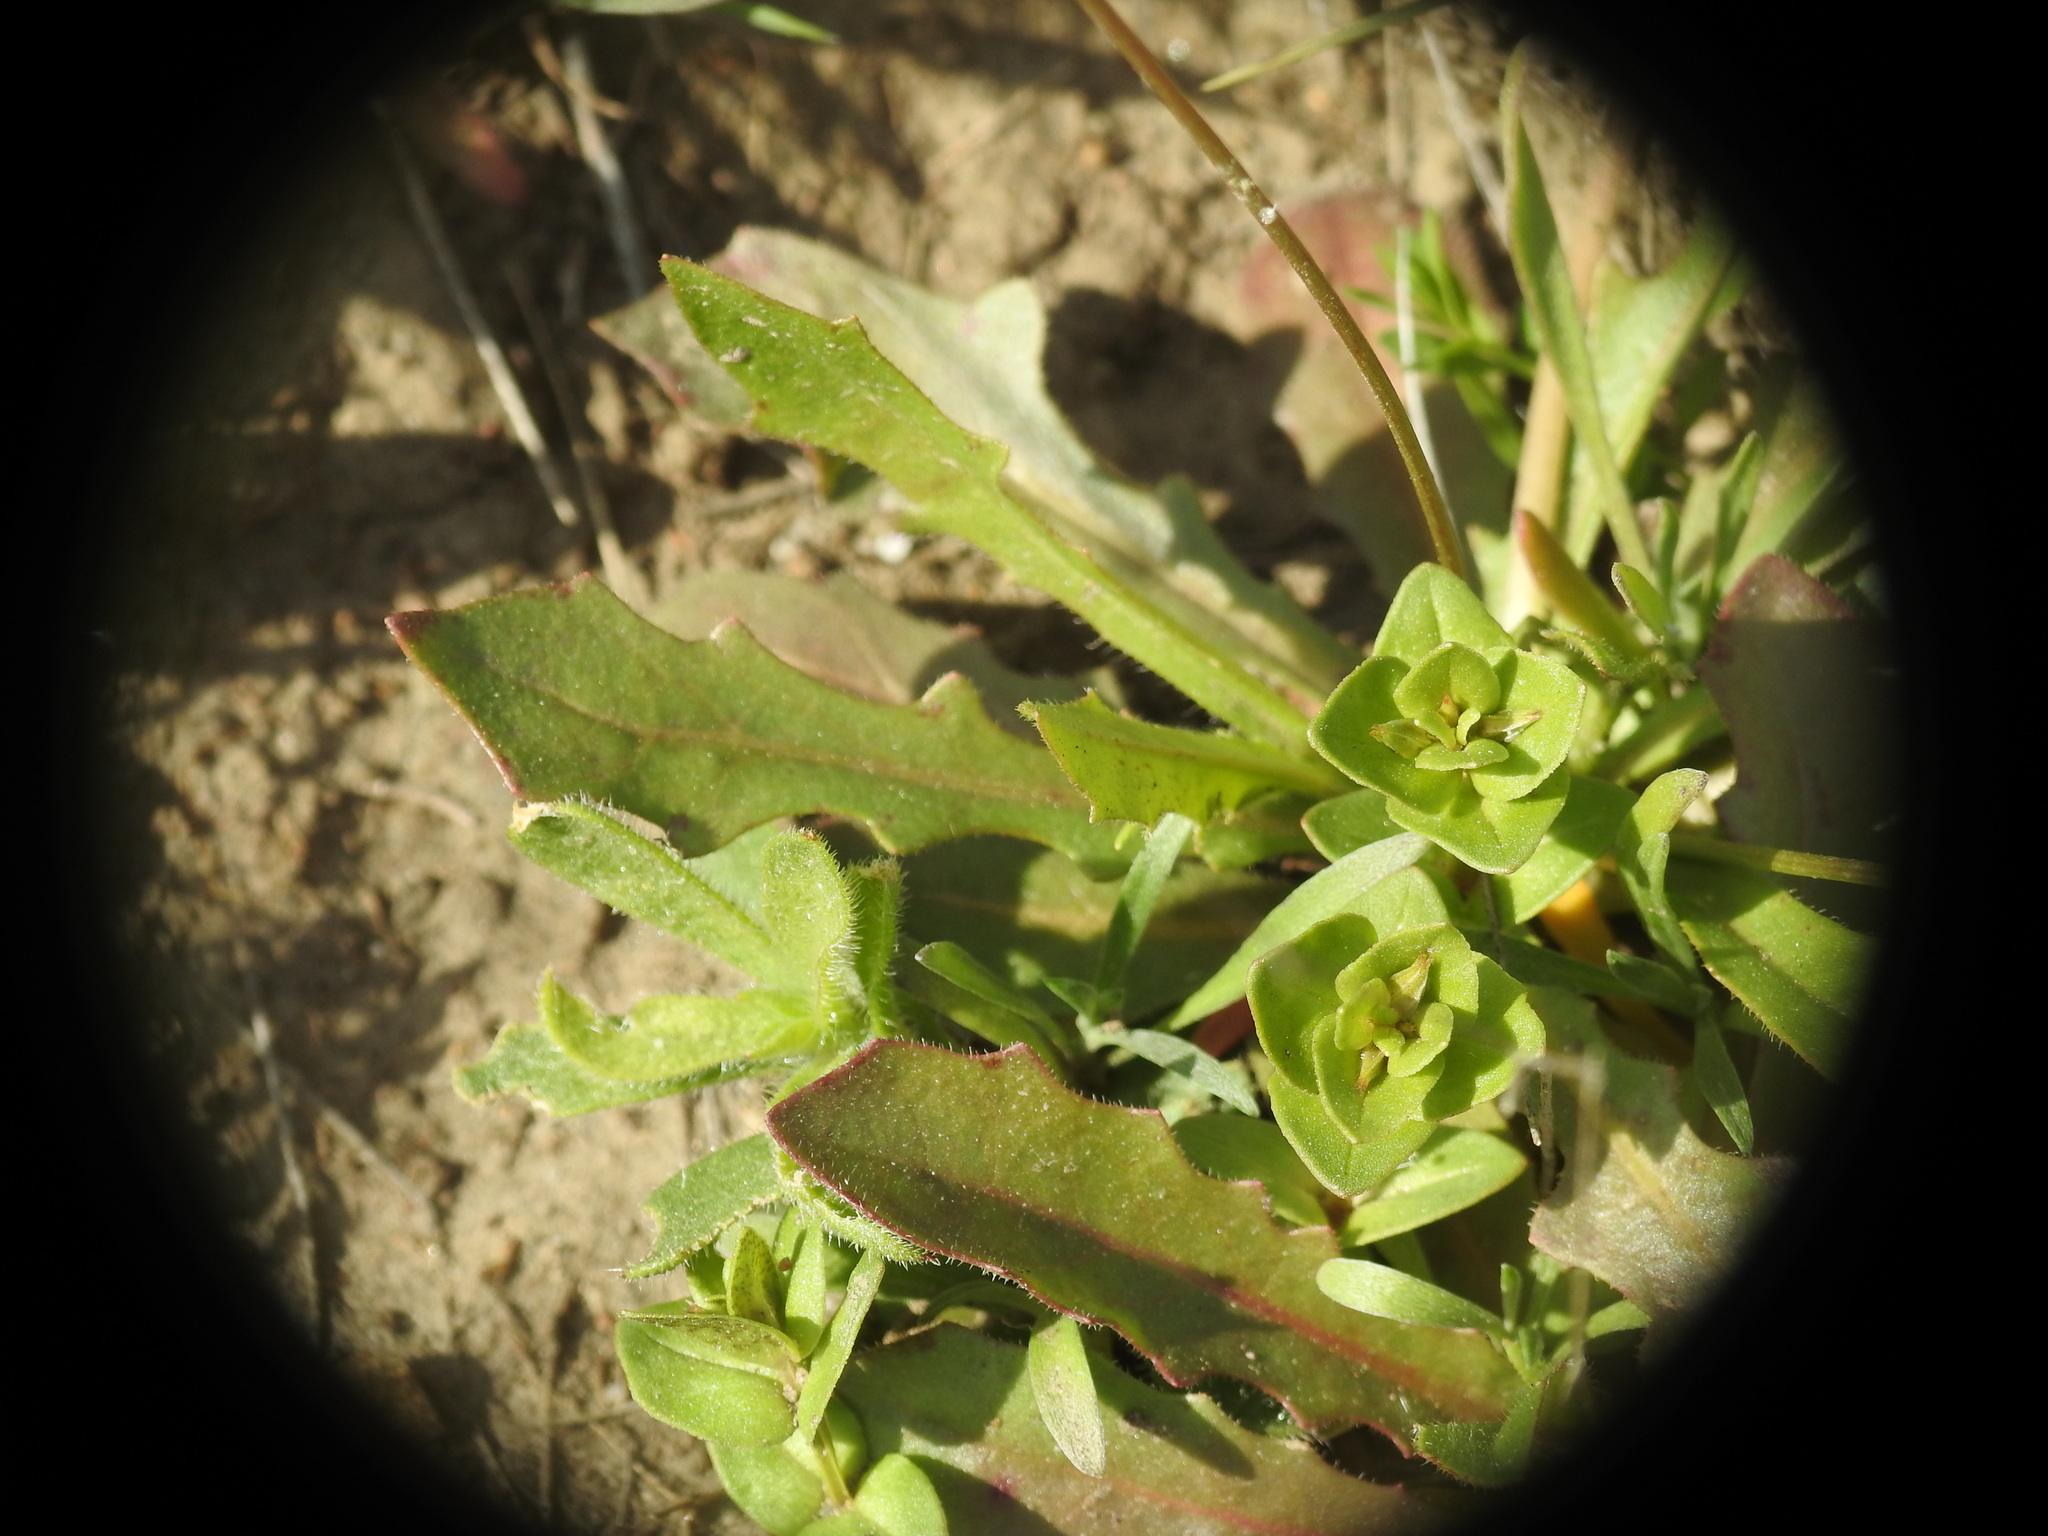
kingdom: Plantae
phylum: Tracheophyta
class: Magnoliopsida
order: Asterales
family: Asteraceae
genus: Hedypnois
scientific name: Hedypnois rhagadioloides
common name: Cretan weed
